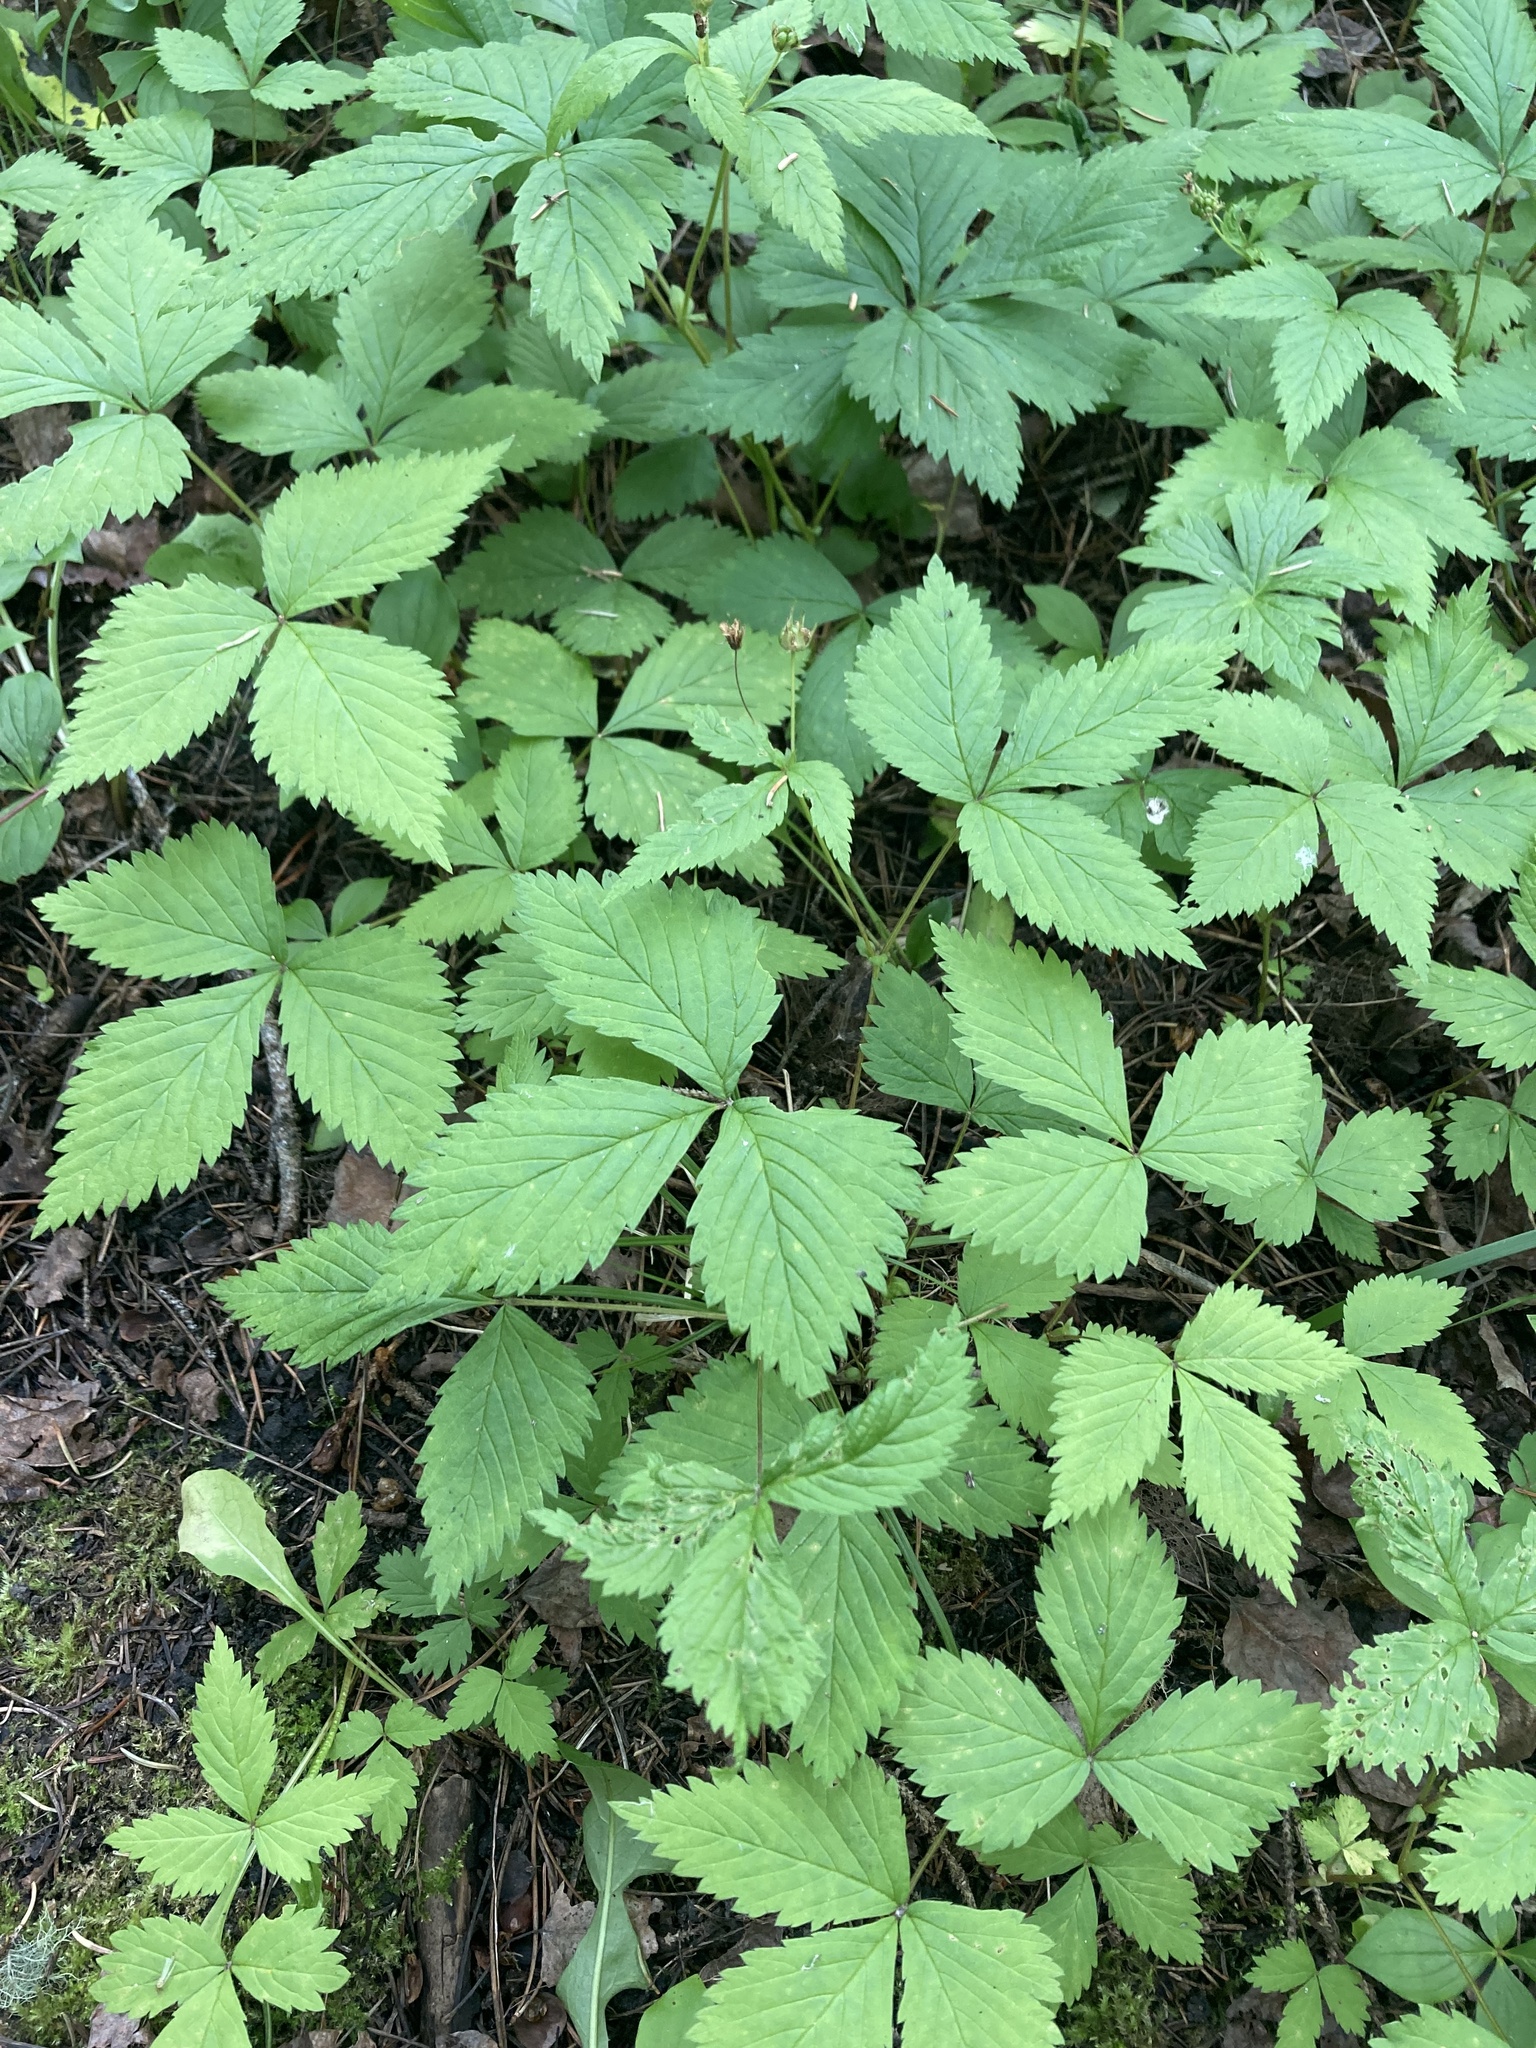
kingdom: Plantae
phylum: Tracheophyta
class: Magnoliopsida
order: Rosales
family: Rosaceae
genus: Rubus
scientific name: Rubus pubescens
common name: Dwarf raspberry
